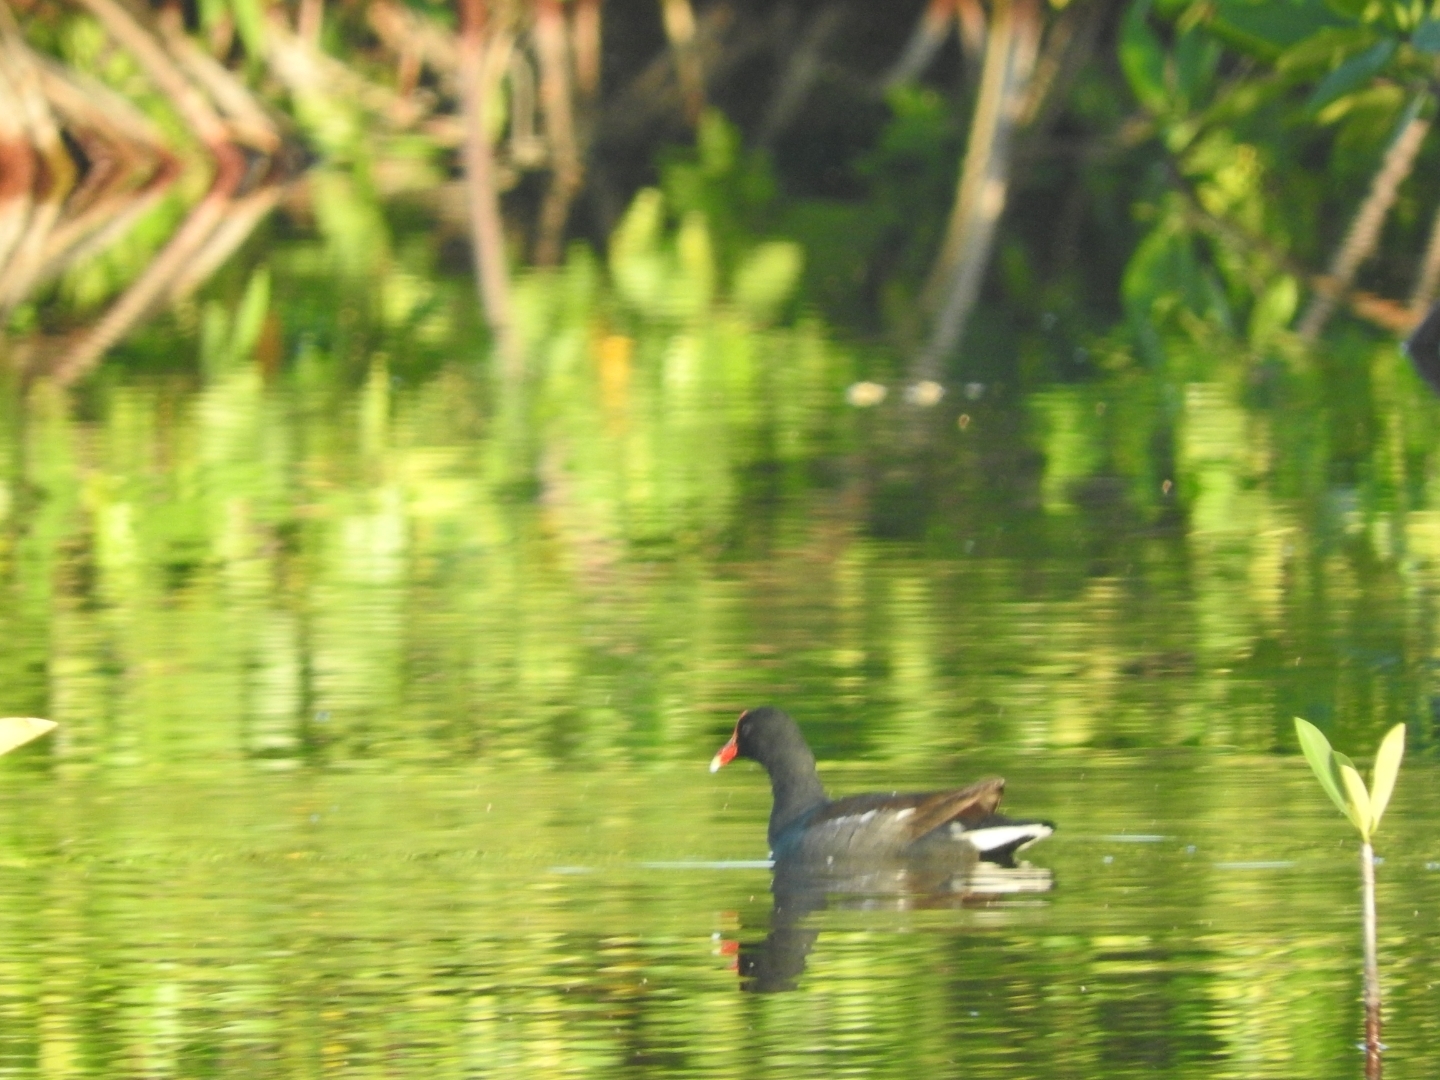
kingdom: Animalia
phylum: Chordata
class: Aves
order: Gruiformes
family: Rallidae
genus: Gallinula
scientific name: Gallinula chloropus
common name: Common moorhen
